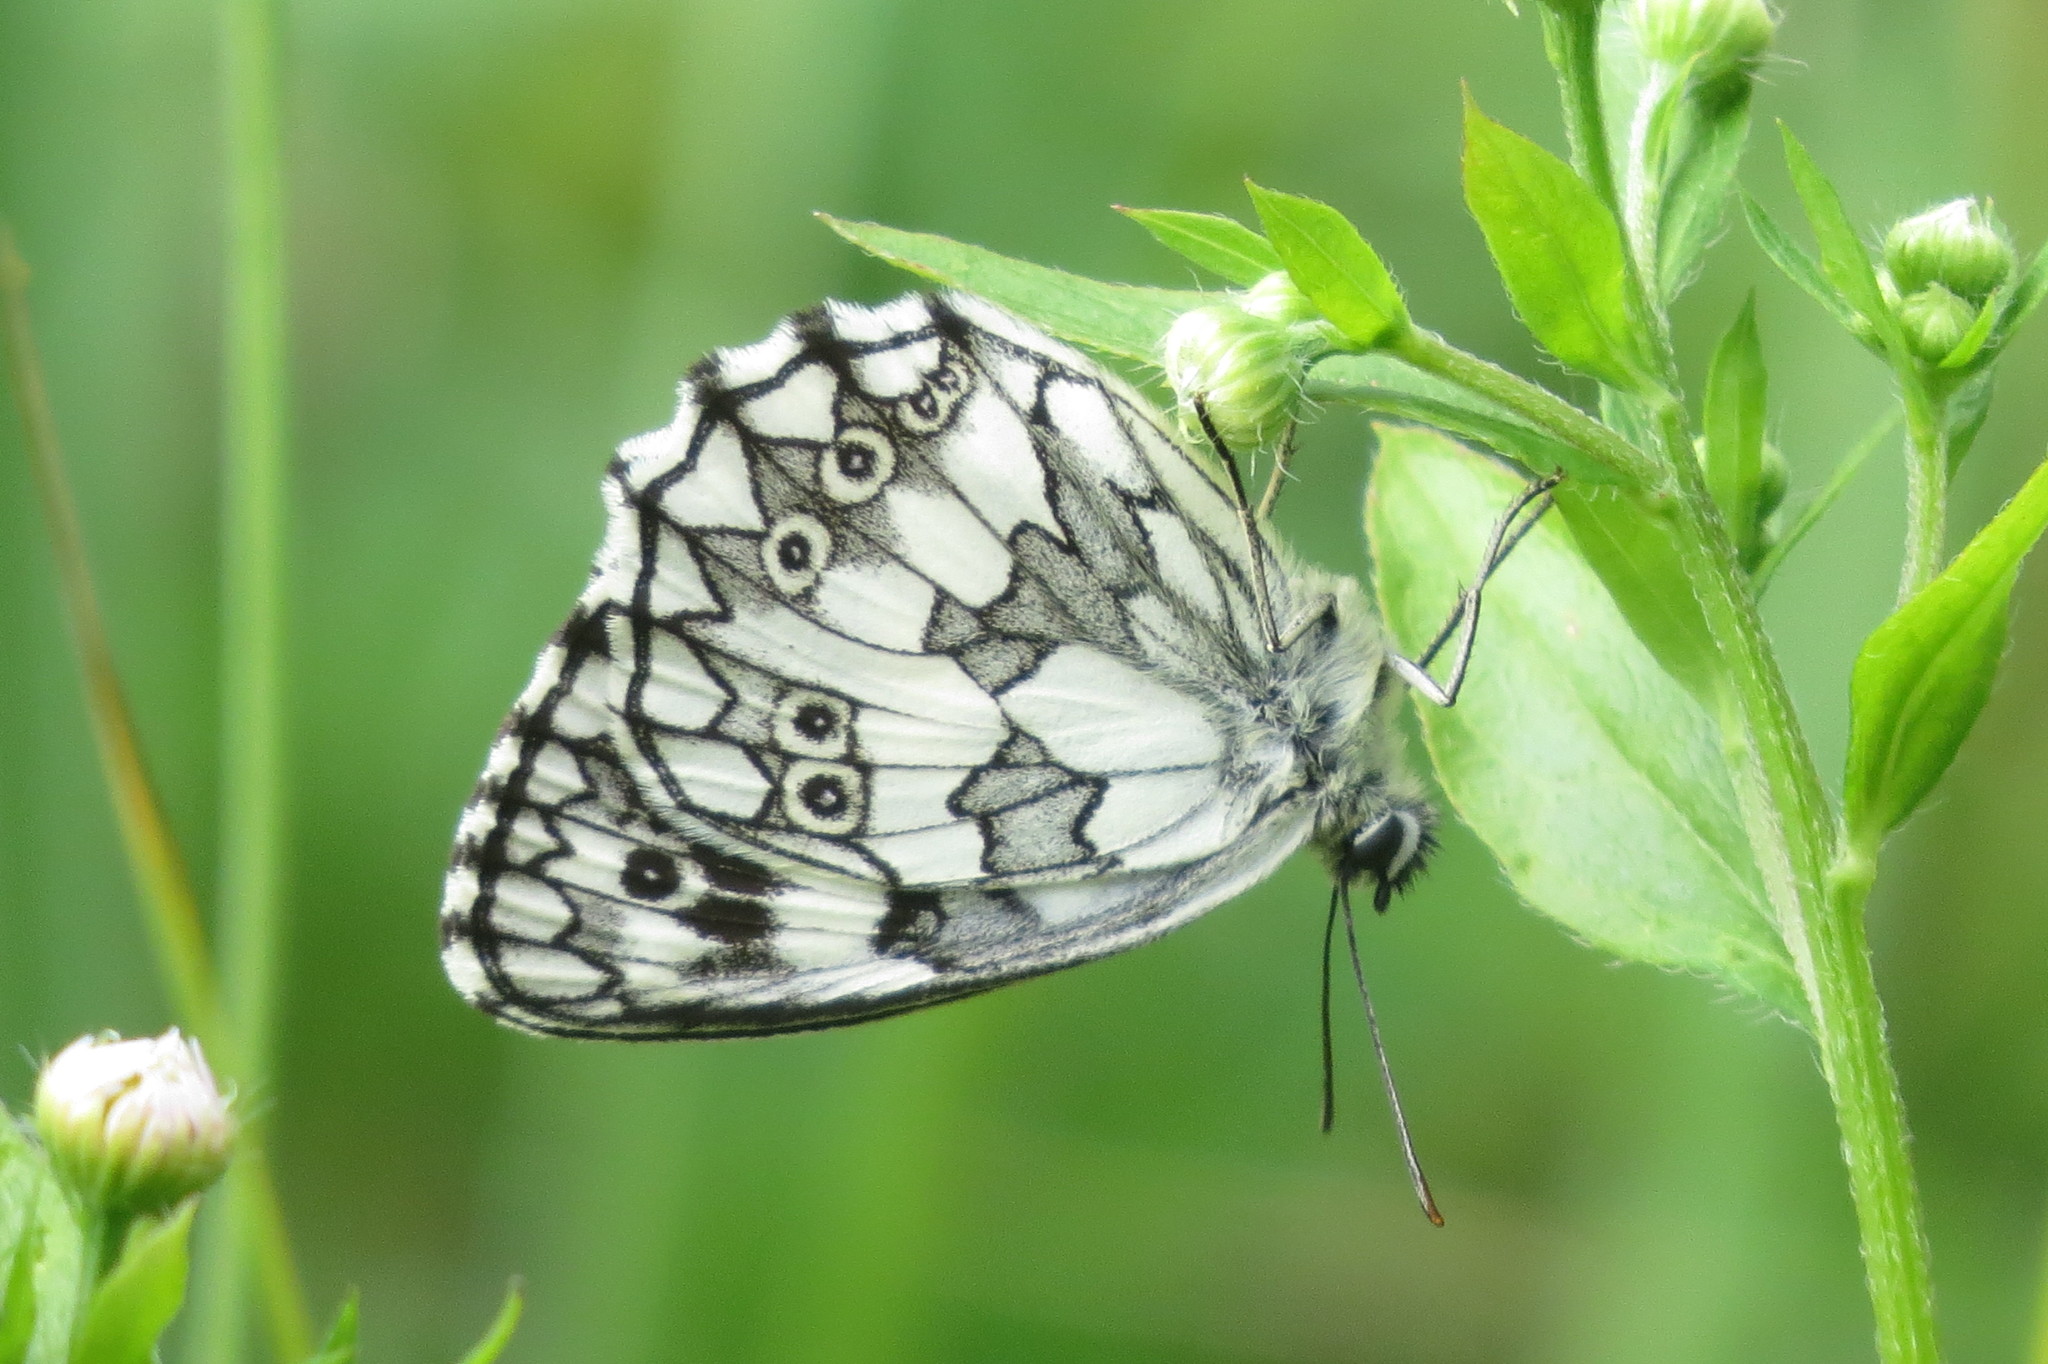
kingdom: Animalia
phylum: Arthropoda
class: Insecta
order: Lepidoptera
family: Nymphalidae
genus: Melanargia
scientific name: Melanargia galathea
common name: Marbled white
